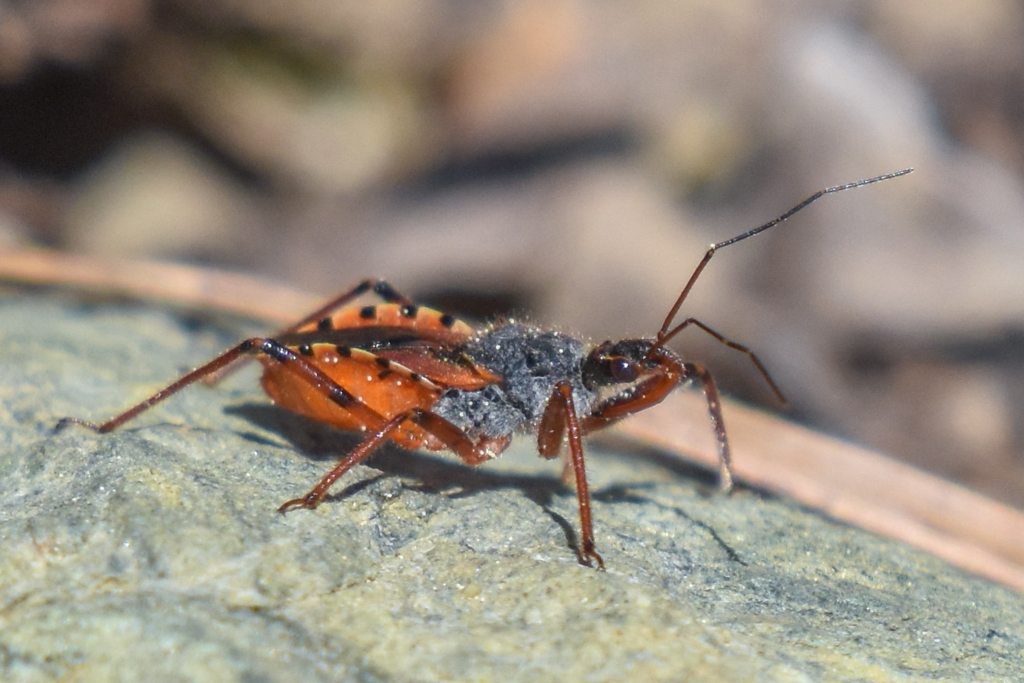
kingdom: Animalia
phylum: Arthropoda
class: Insecta
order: Hemiptera
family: Reduviidae
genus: Rhynocoris
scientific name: Rhynocoris ventralis
